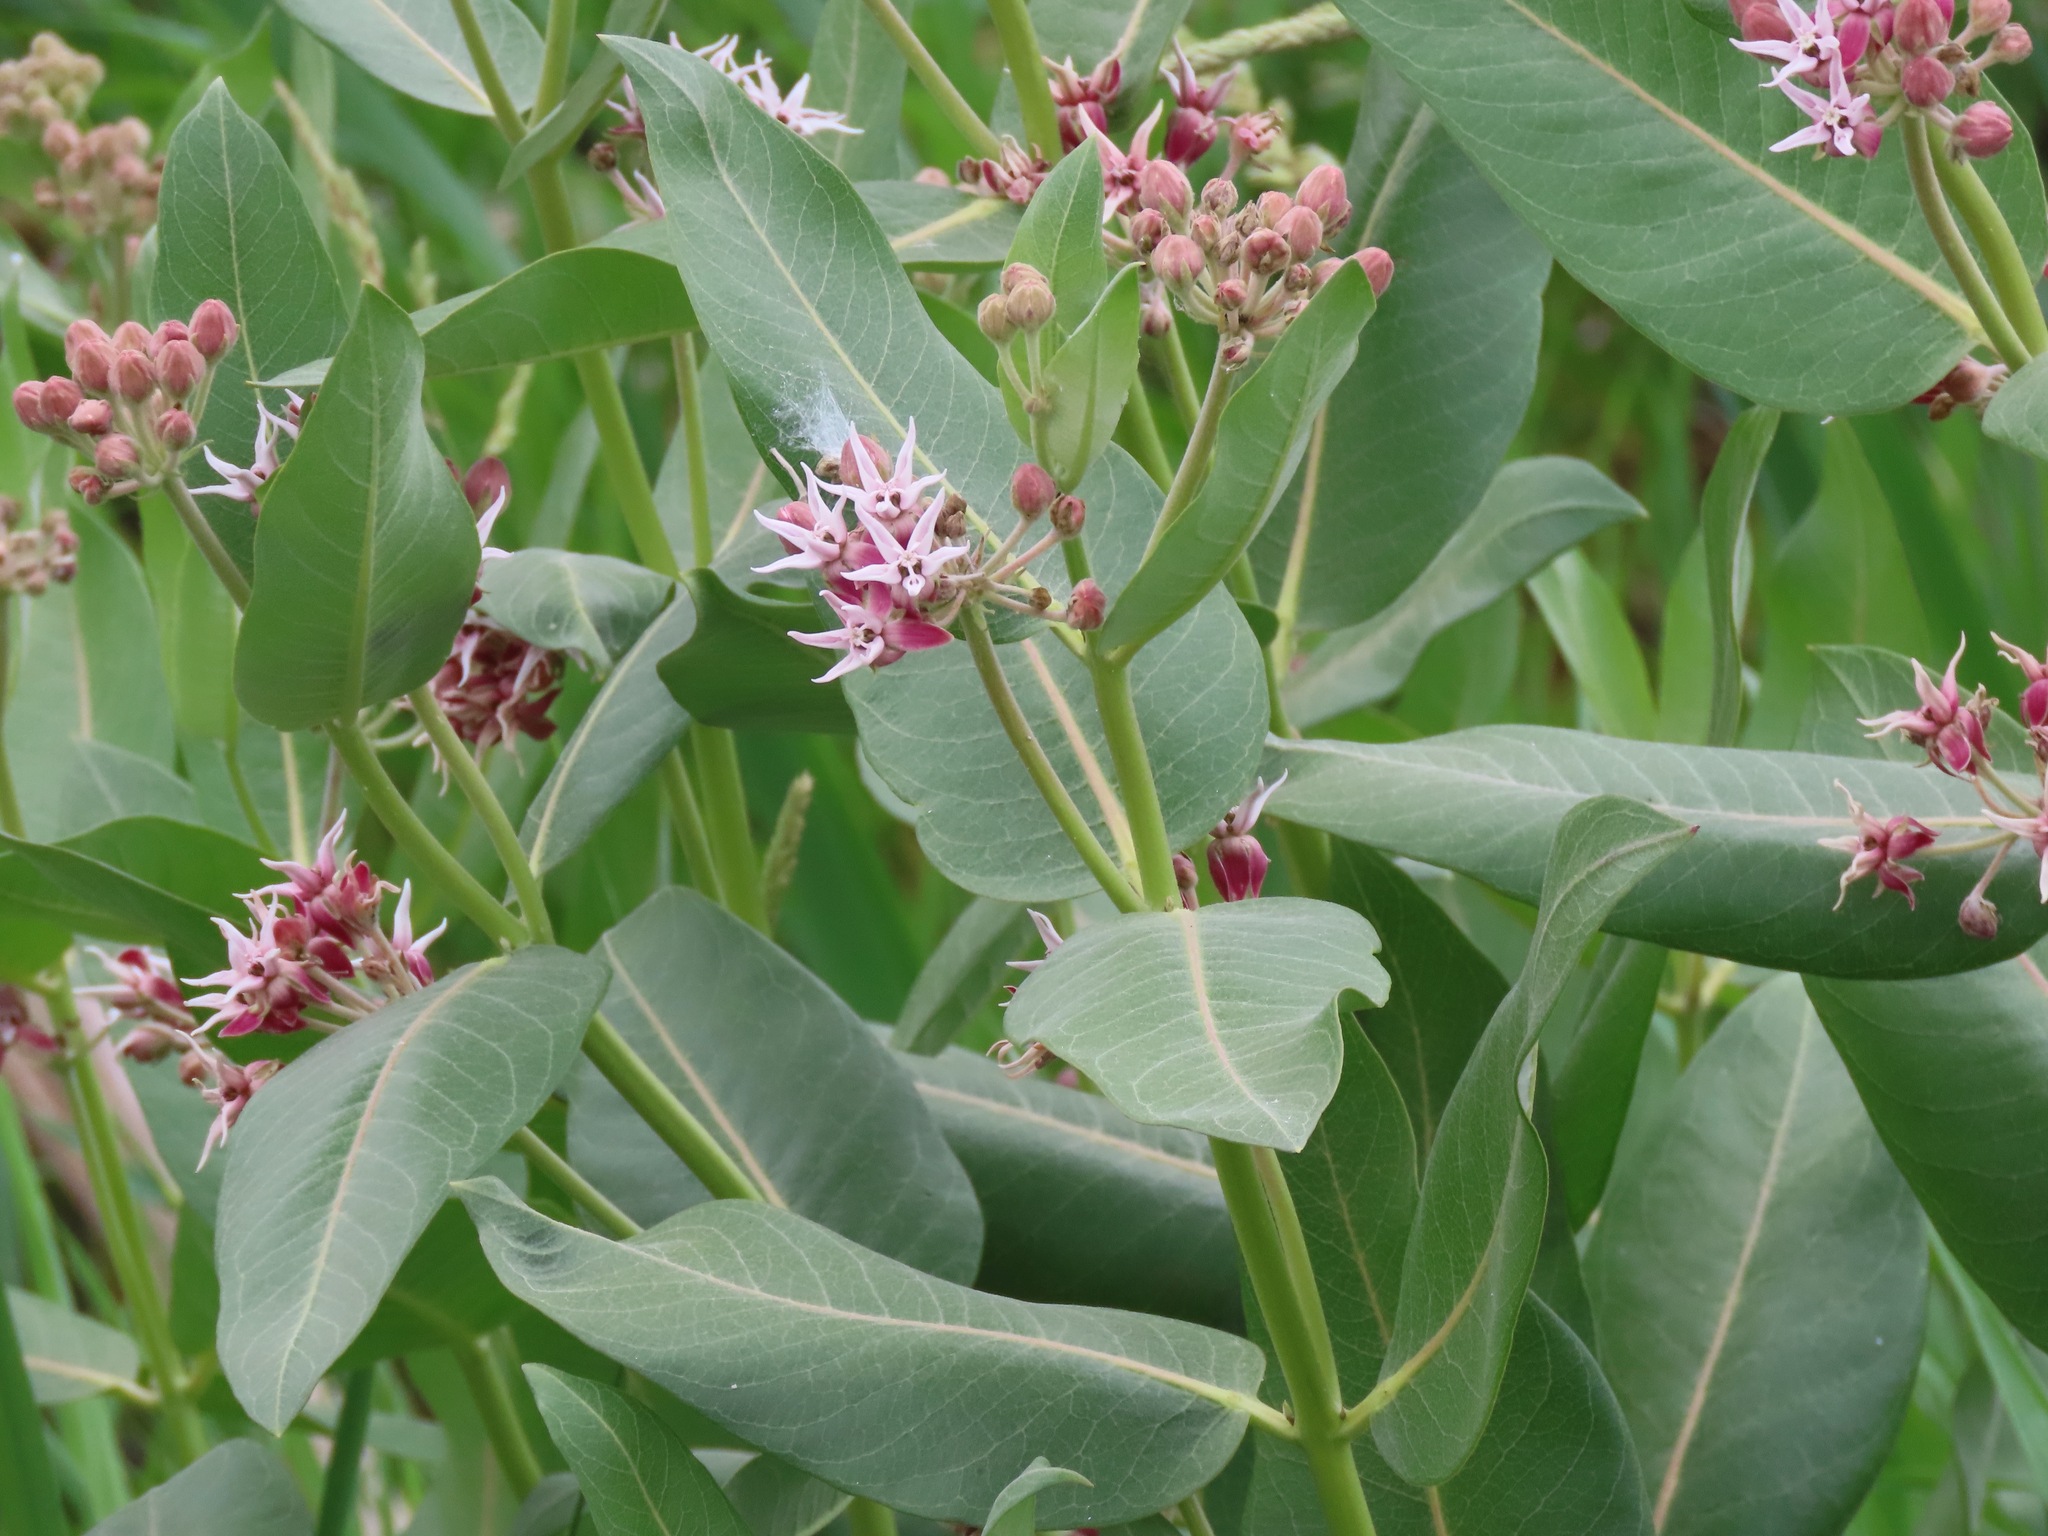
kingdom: Plantae
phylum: Tracheophyta
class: Magnoliopsida
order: Gentianales
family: Apocynaceae
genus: Asclepias
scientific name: Asclepias speciosa
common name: Showy milkweed
